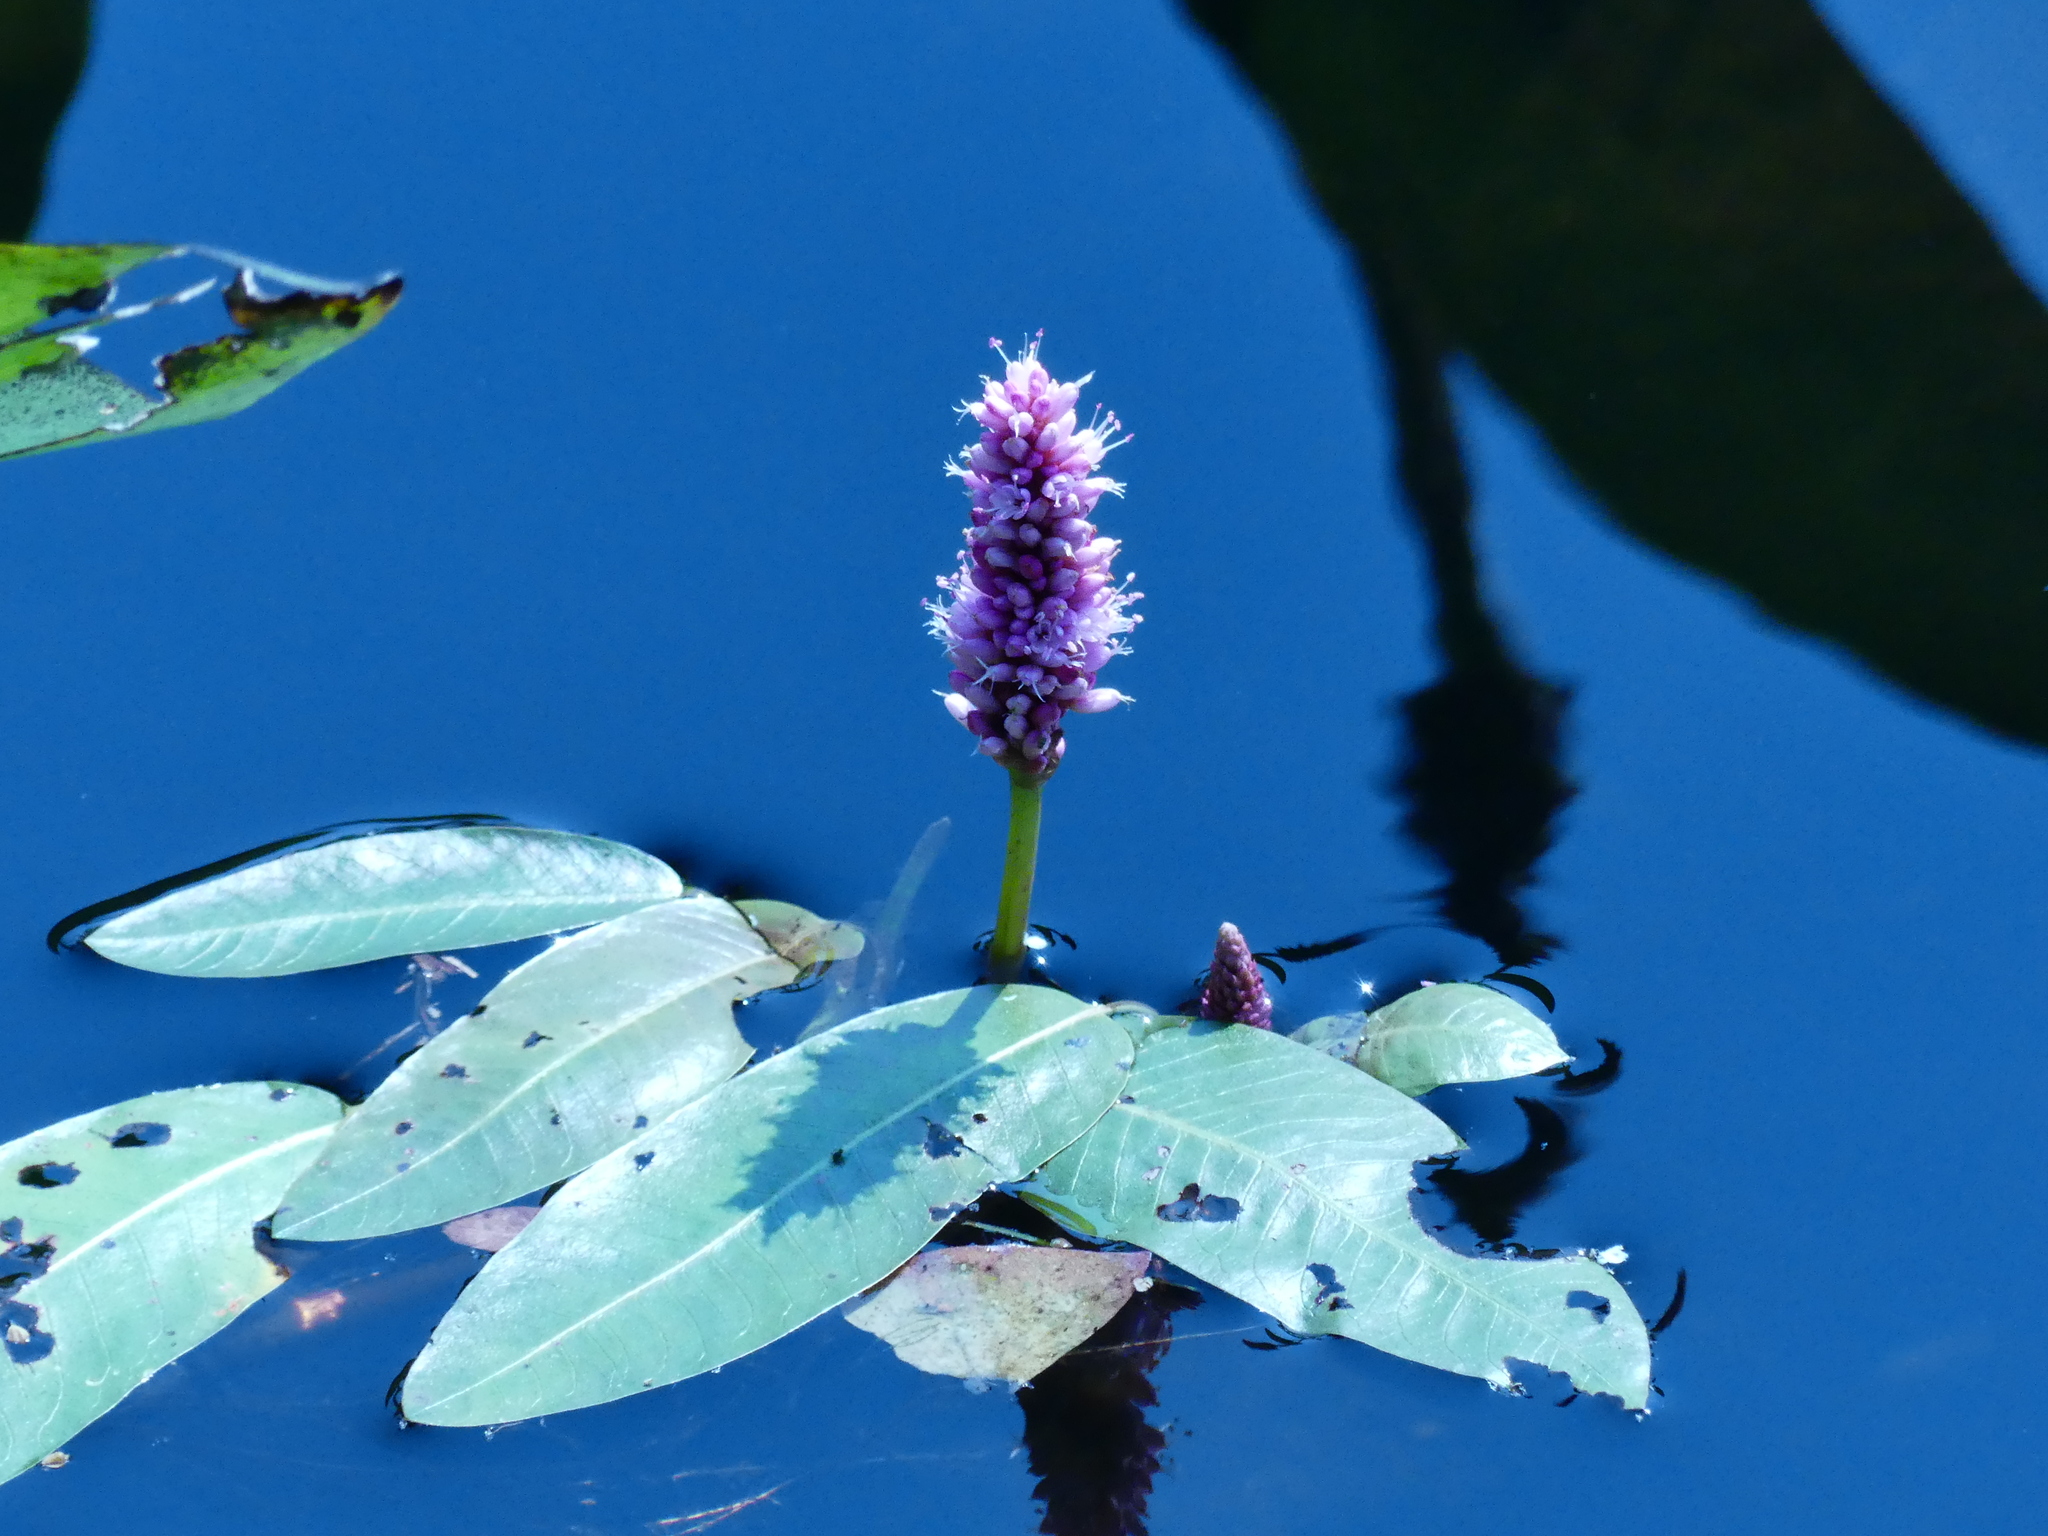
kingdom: Plantae
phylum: Tracheophyta
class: Magnoliopsida
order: Caryophyllales
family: Polygonaceae
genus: Persicaria
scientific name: Persicaria amphibia
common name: Amphibious bistort
